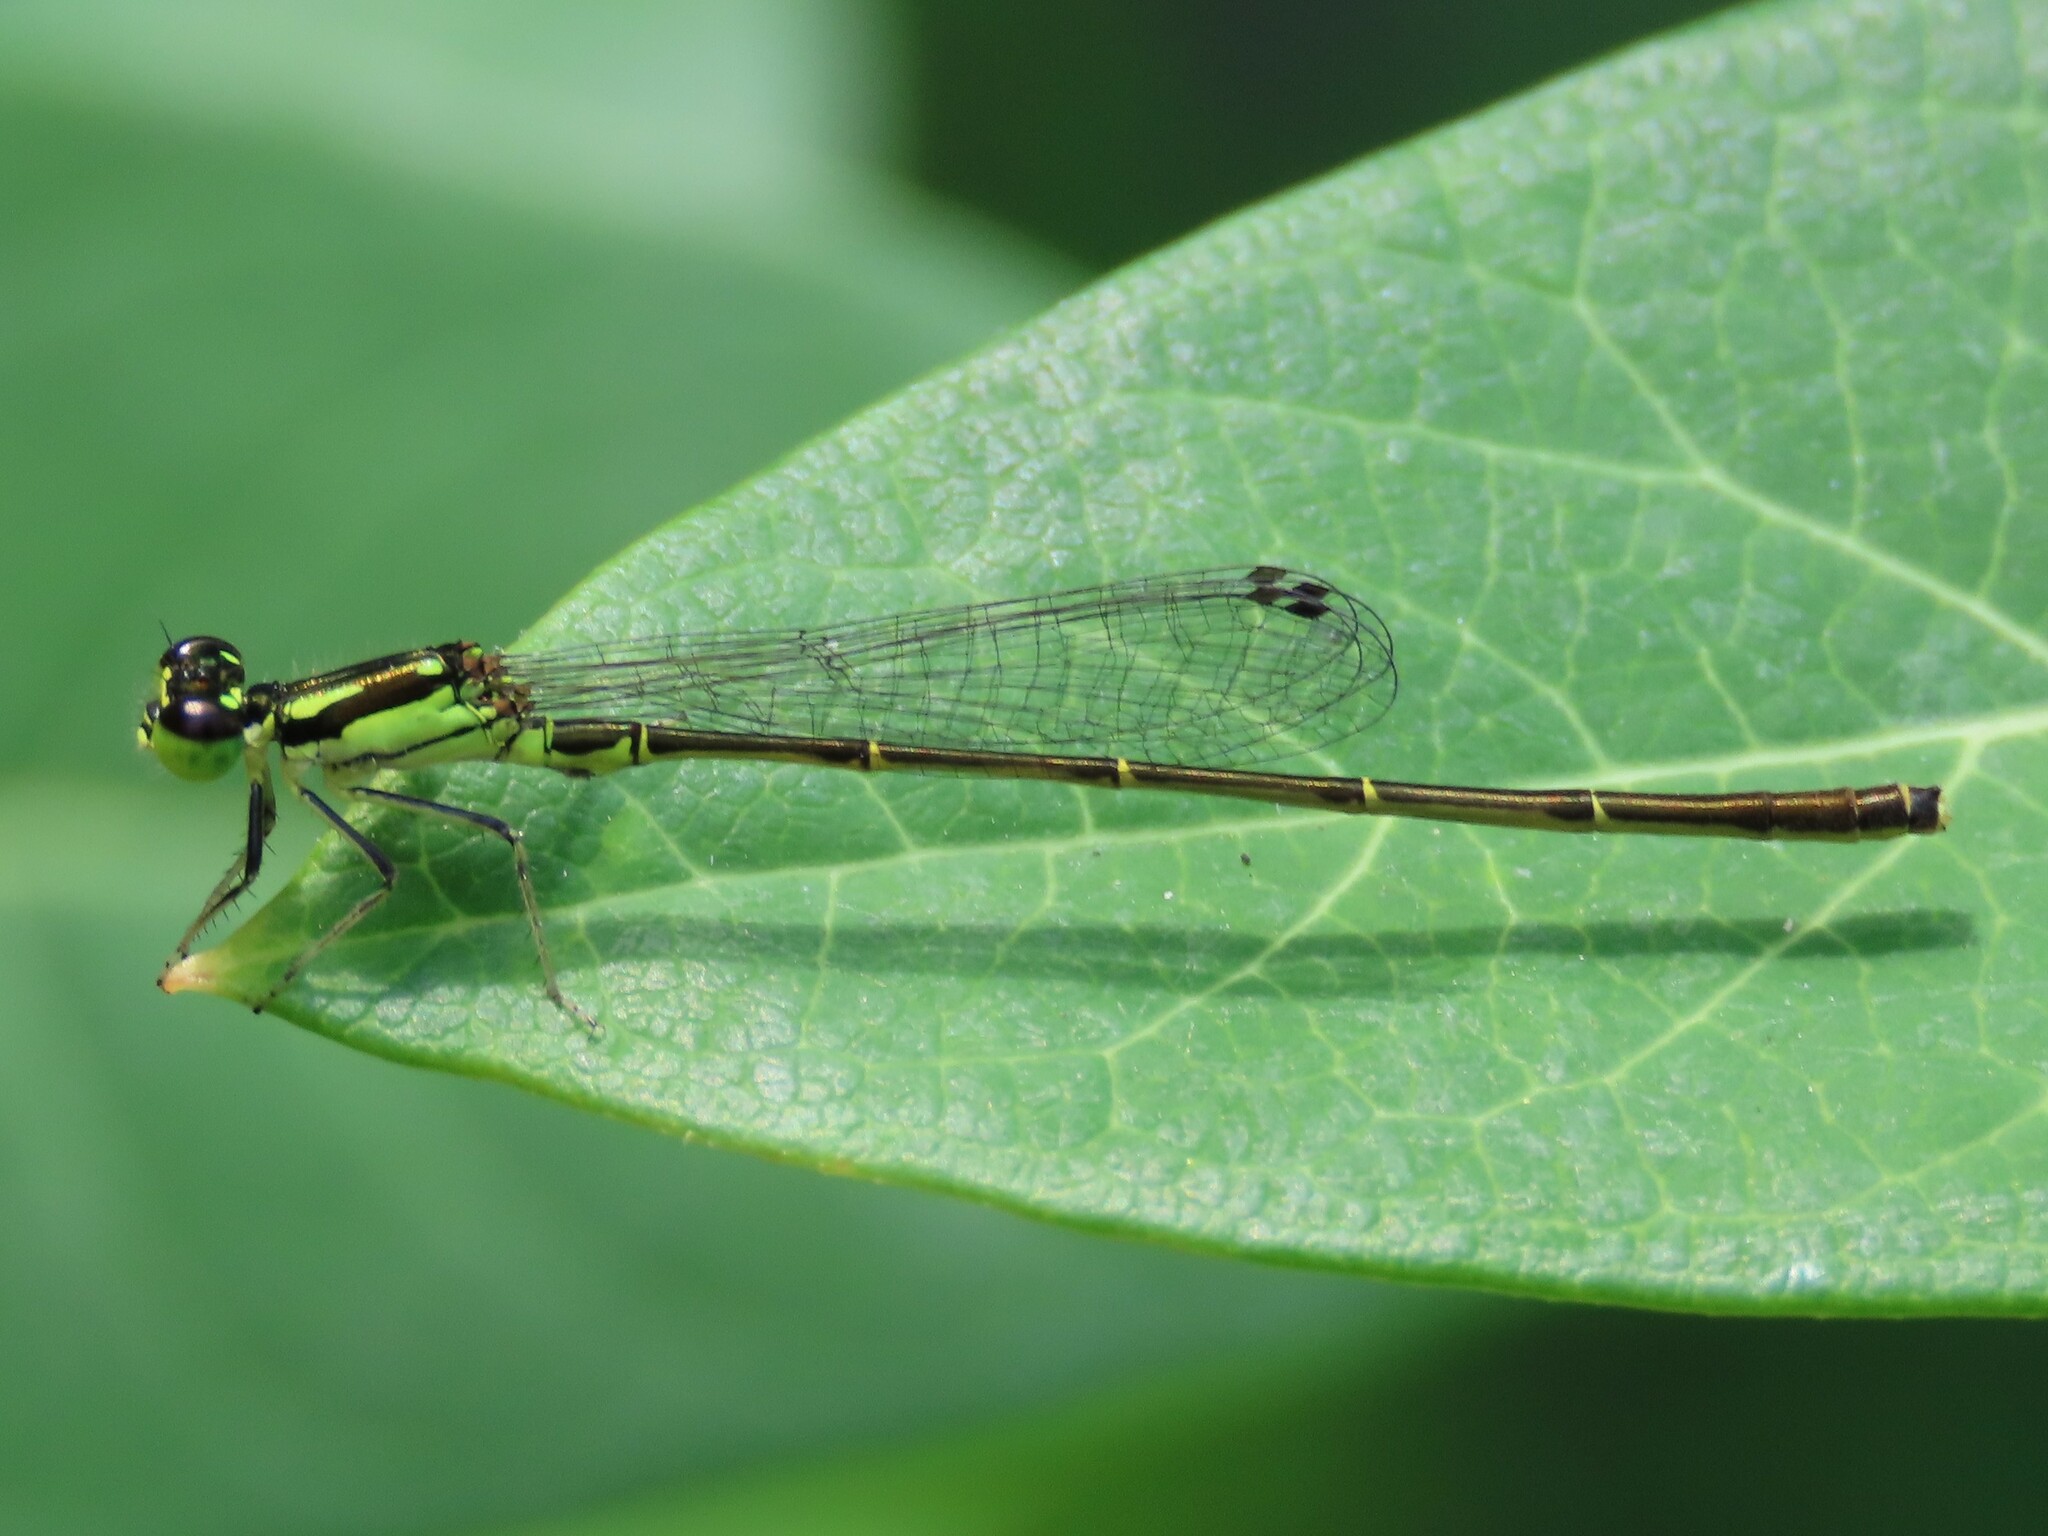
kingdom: Animalia
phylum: Arthropoda
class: Insecta
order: Odonata
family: Coenagrionidae
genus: Ischnura
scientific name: Ischnura posita
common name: Fragile forktail
